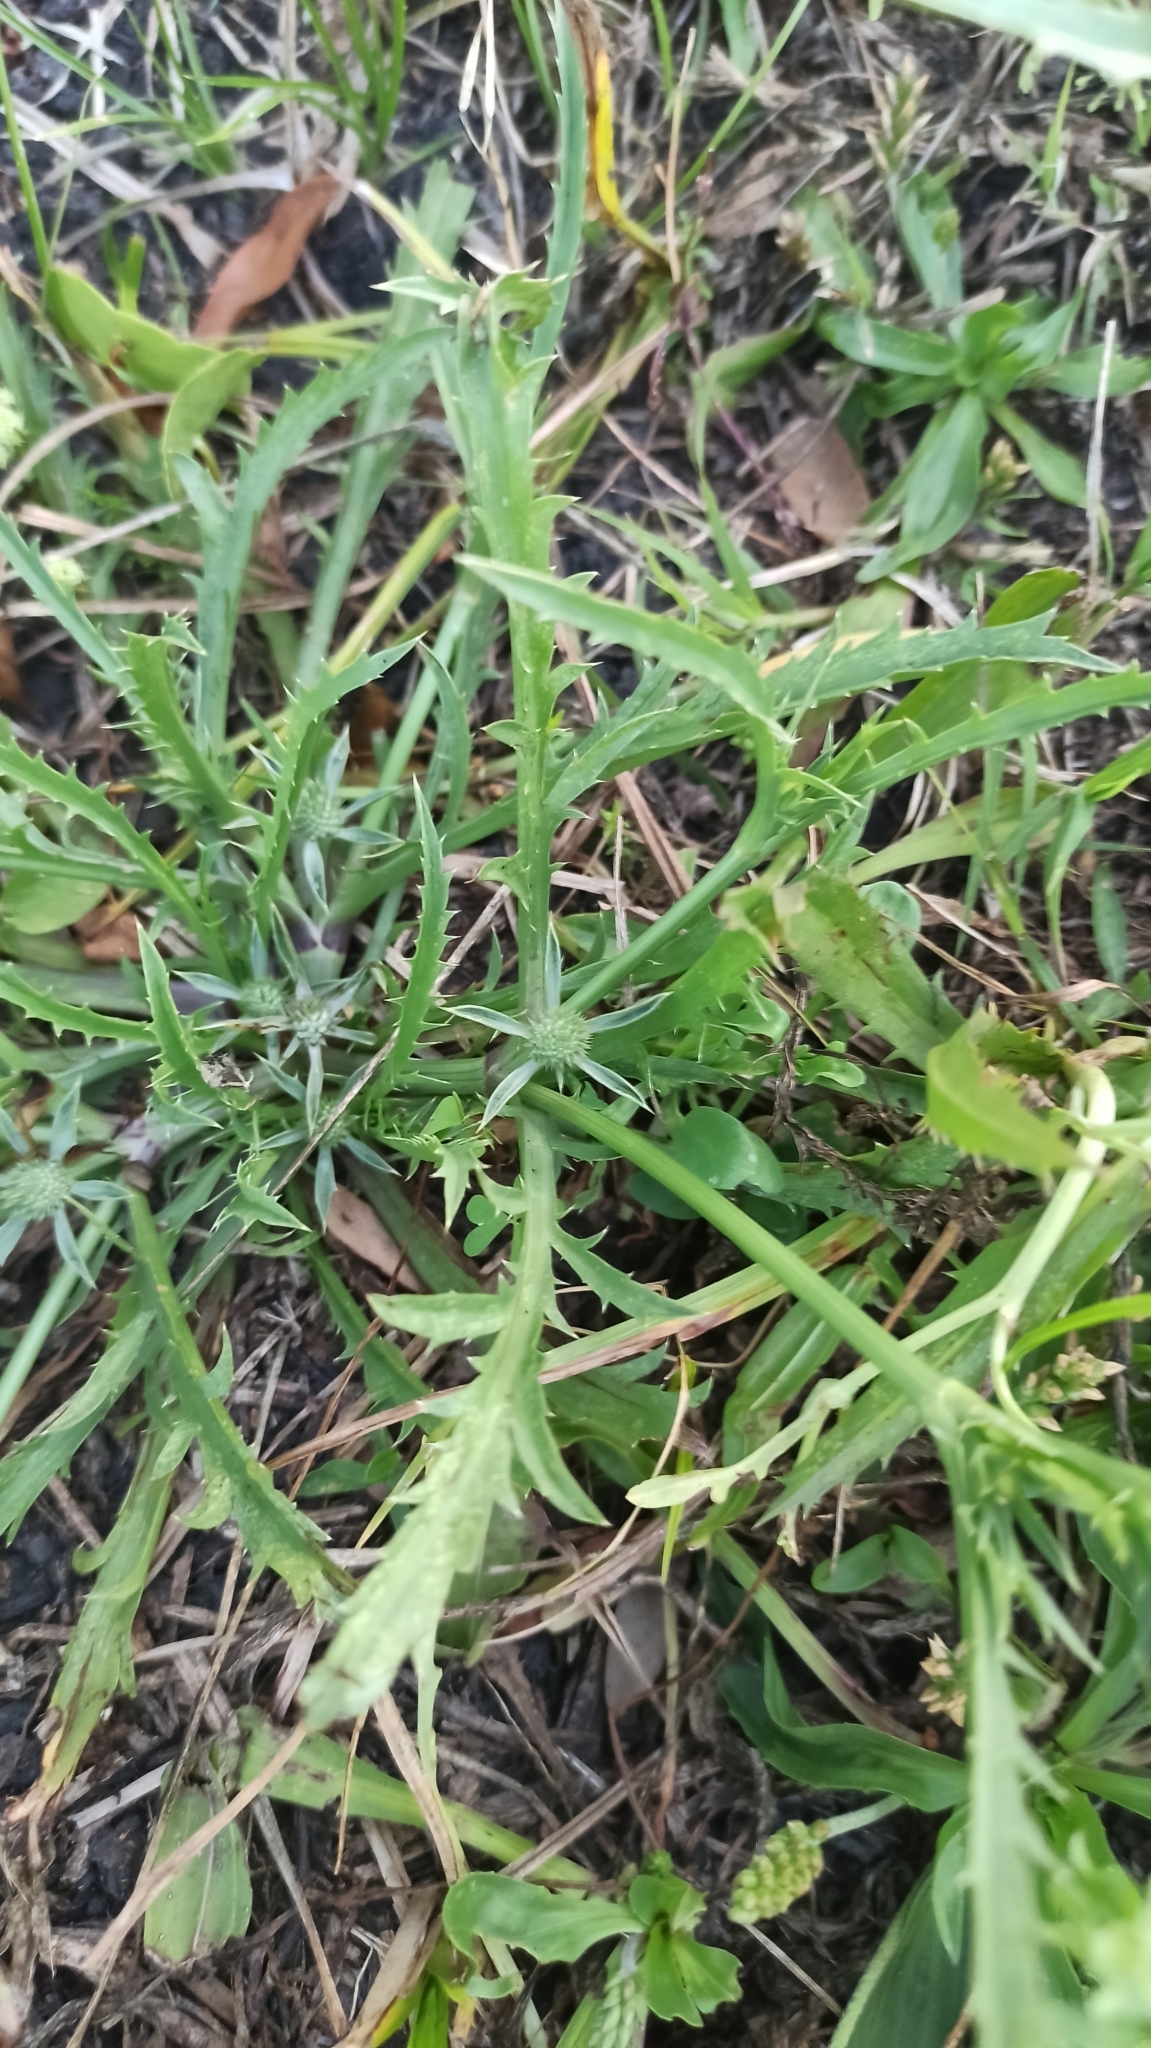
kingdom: Plantae
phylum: Tracheophyta
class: Magnoliopsida
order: Apiales
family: Apiaceae
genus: Eryngium
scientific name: Eryngium echinatum
